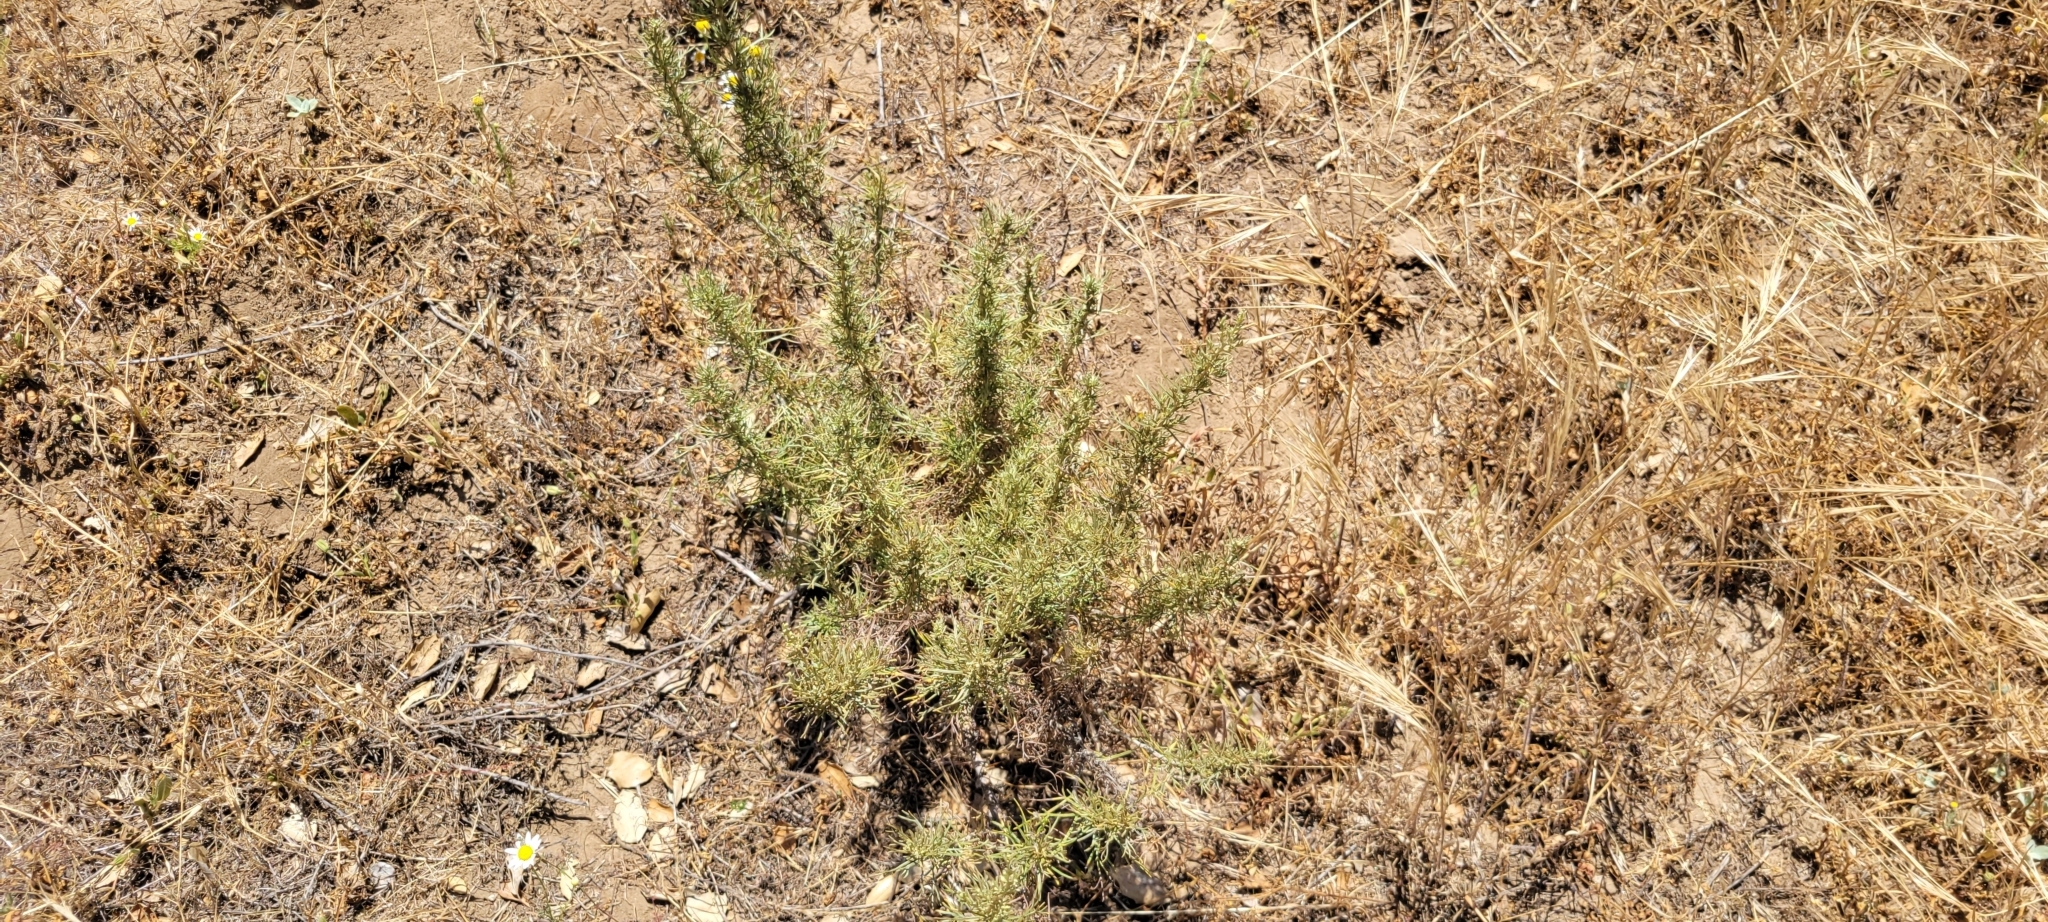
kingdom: Plantae
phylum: Tracheophyta
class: Magnoliopsida
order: Asterales
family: Asteraceae
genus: Artemisia
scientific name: Artemisia californica
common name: California sagebrush
